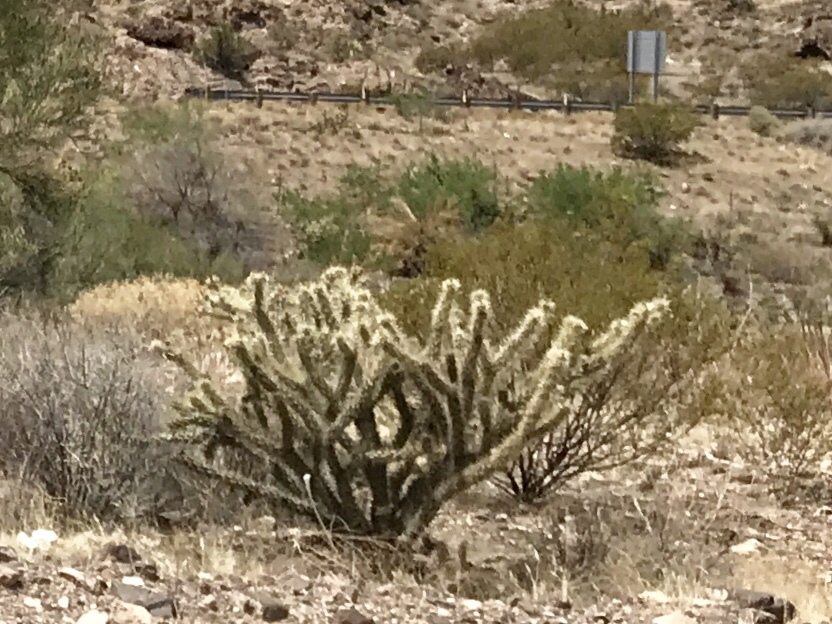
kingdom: Plantae
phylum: Tracheophyta
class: Magnoliopsida
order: Caryophyllales
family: Cactaceae
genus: Cylindropuntia
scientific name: Cylindropuntia acanthocarpa
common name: Buckhorn cholla
